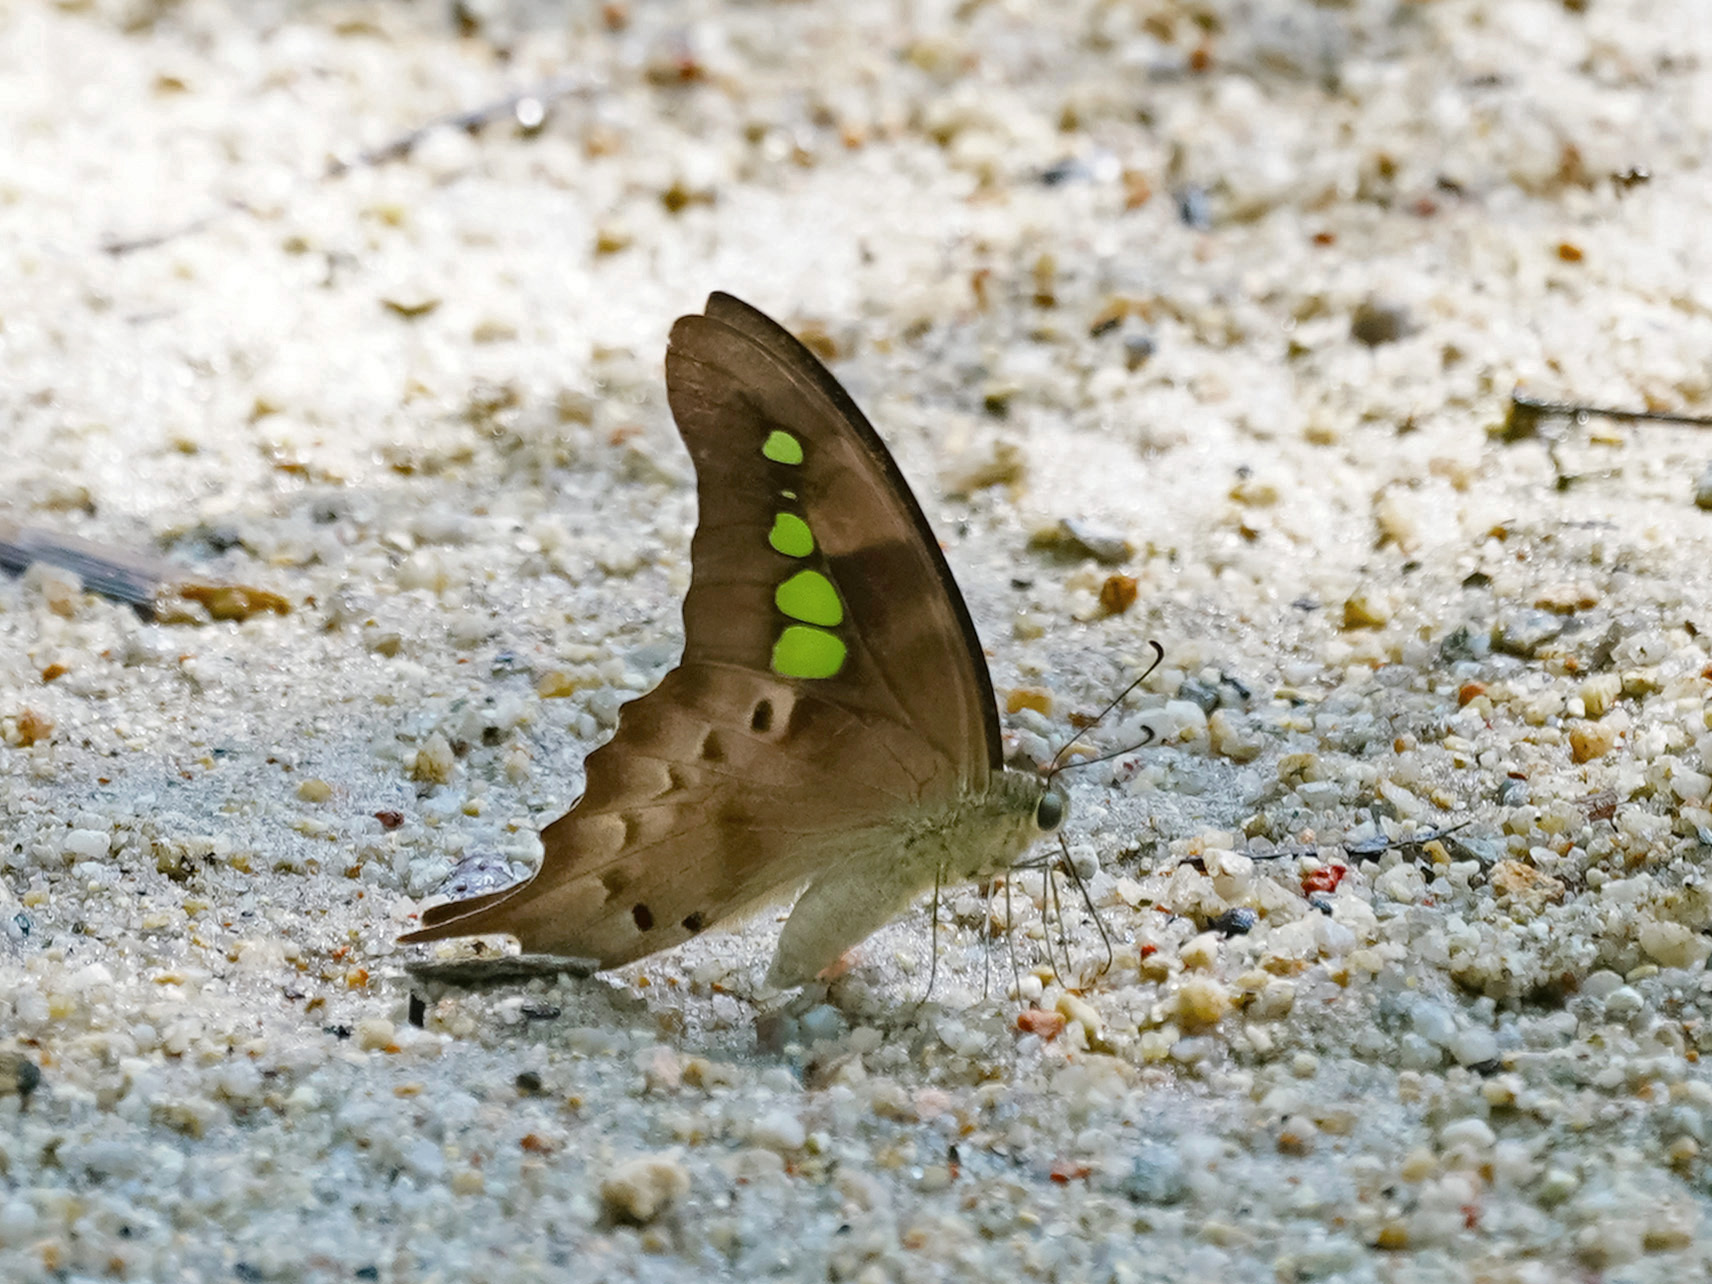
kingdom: Animalia
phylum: Arthropoda
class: Insecta
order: Lepidoptera
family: Papilionidae
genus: Graphium
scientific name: Graphium empedovana
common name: Malayan yellowbottle
